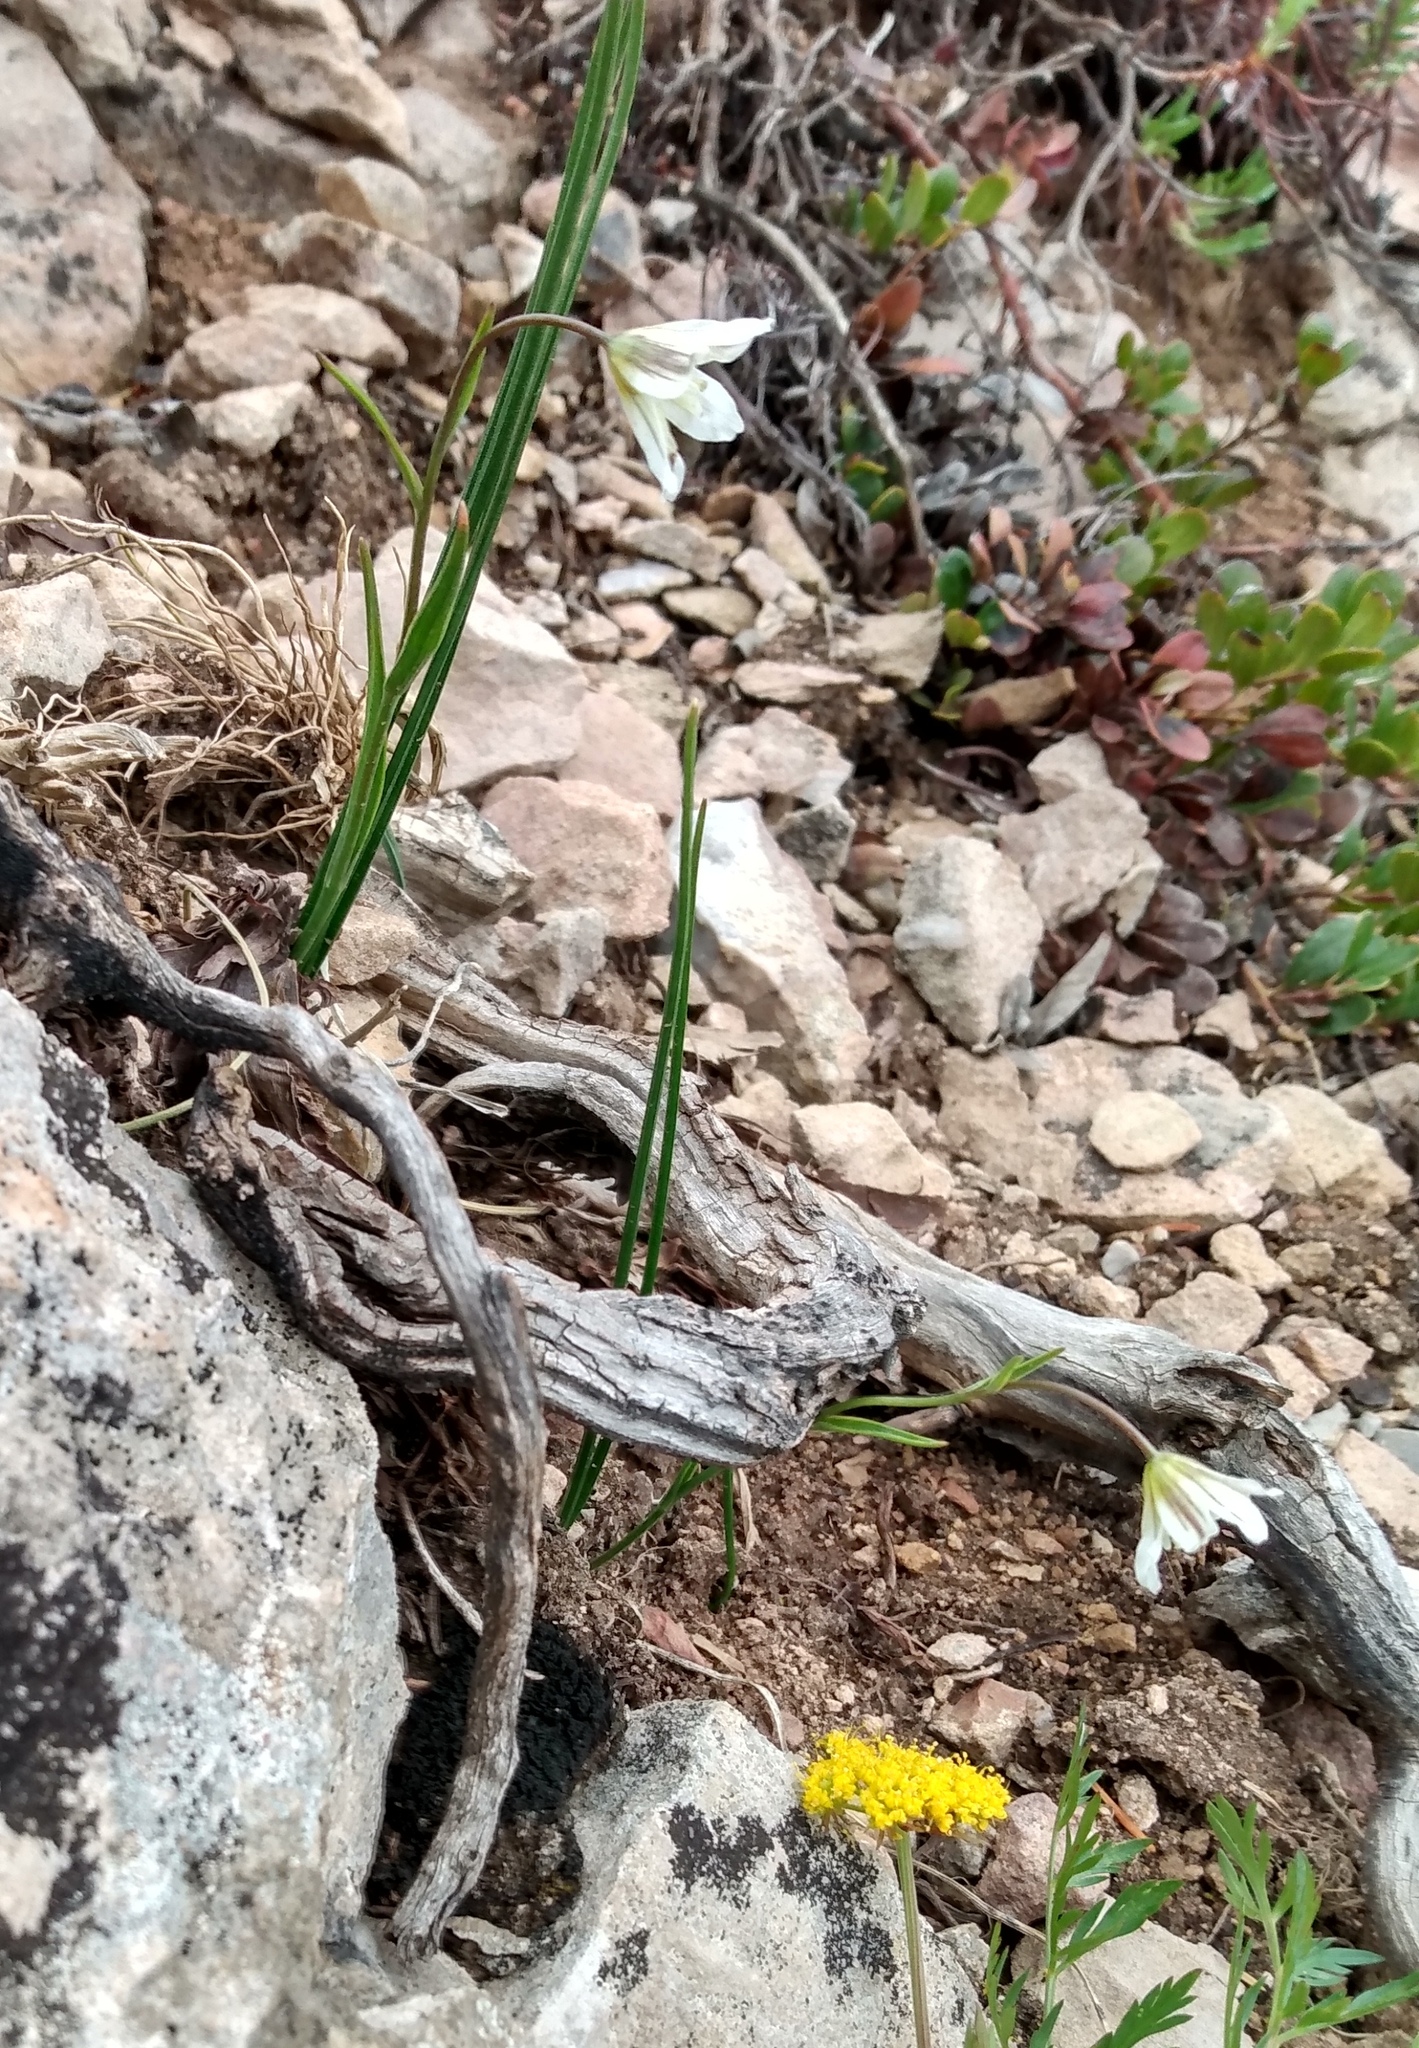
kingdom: Plantae
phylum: Tracheophyta
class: Liliopsida
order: Liliales
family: Liliaceae
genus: Gagea
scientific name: Gagea serotina
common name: Snowdon lily
